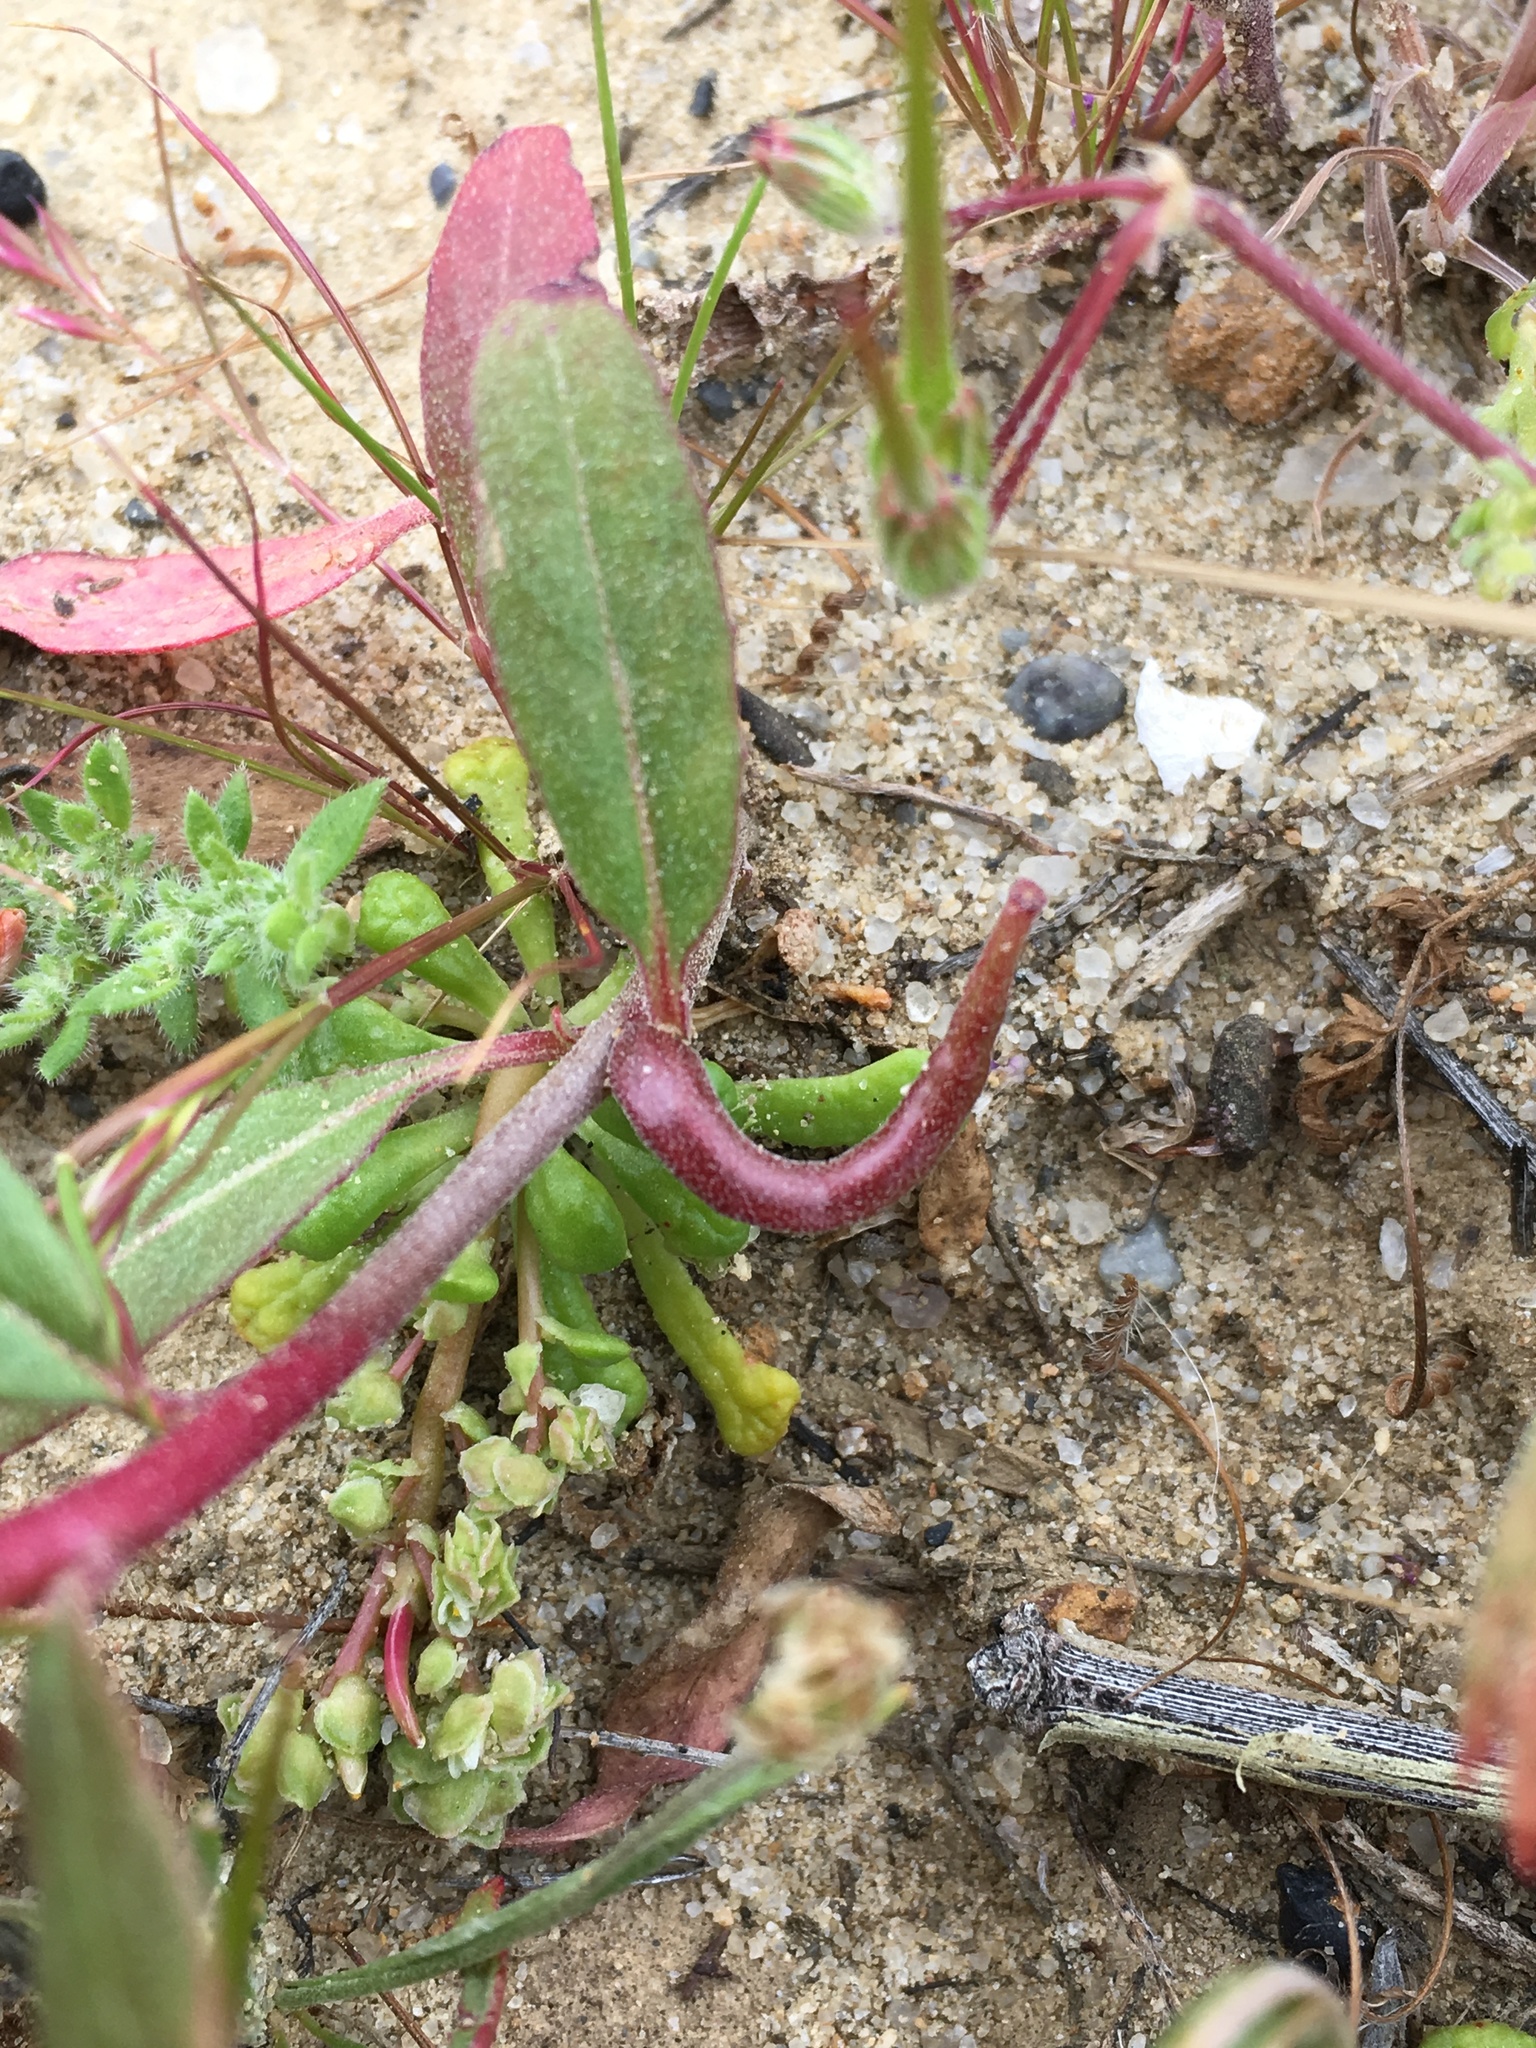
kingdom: Plantae
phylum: Tracheophyta
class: Magnoliopsida
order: Myrtales
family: Onagraceae
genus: Camissoniopsis
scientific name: Camissoniopsis ignota
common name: Jurupa hills suncup
